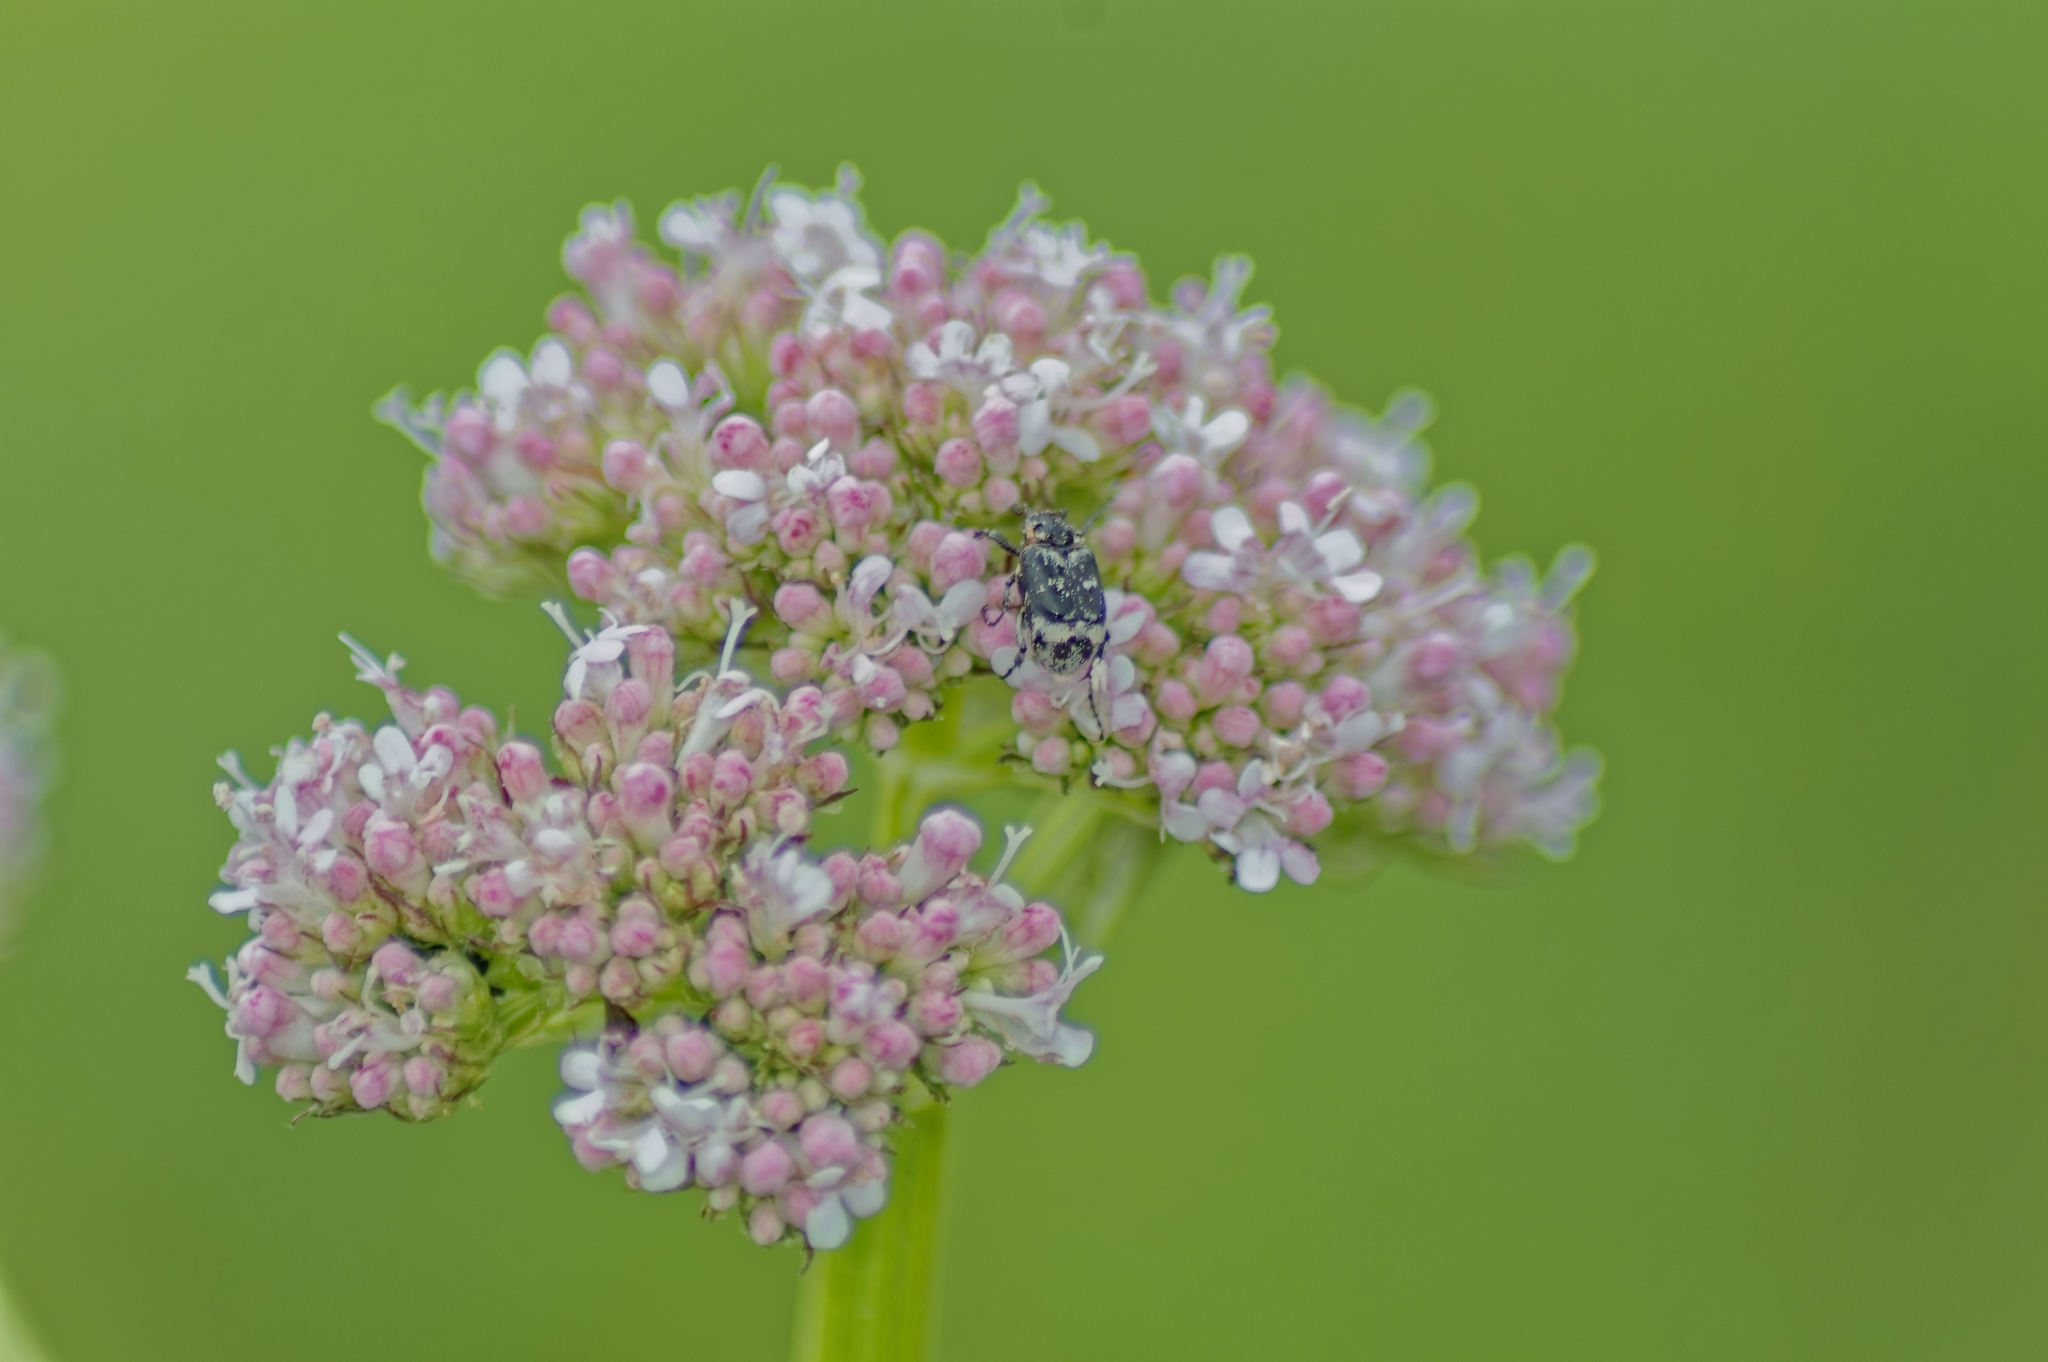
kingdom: Animalia
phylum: Arthropoda
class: Insecta
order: Coleoptera
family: Scarabaeidae
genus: Valgus
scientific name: Valgus hemipterus
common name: Bug flower chafer
